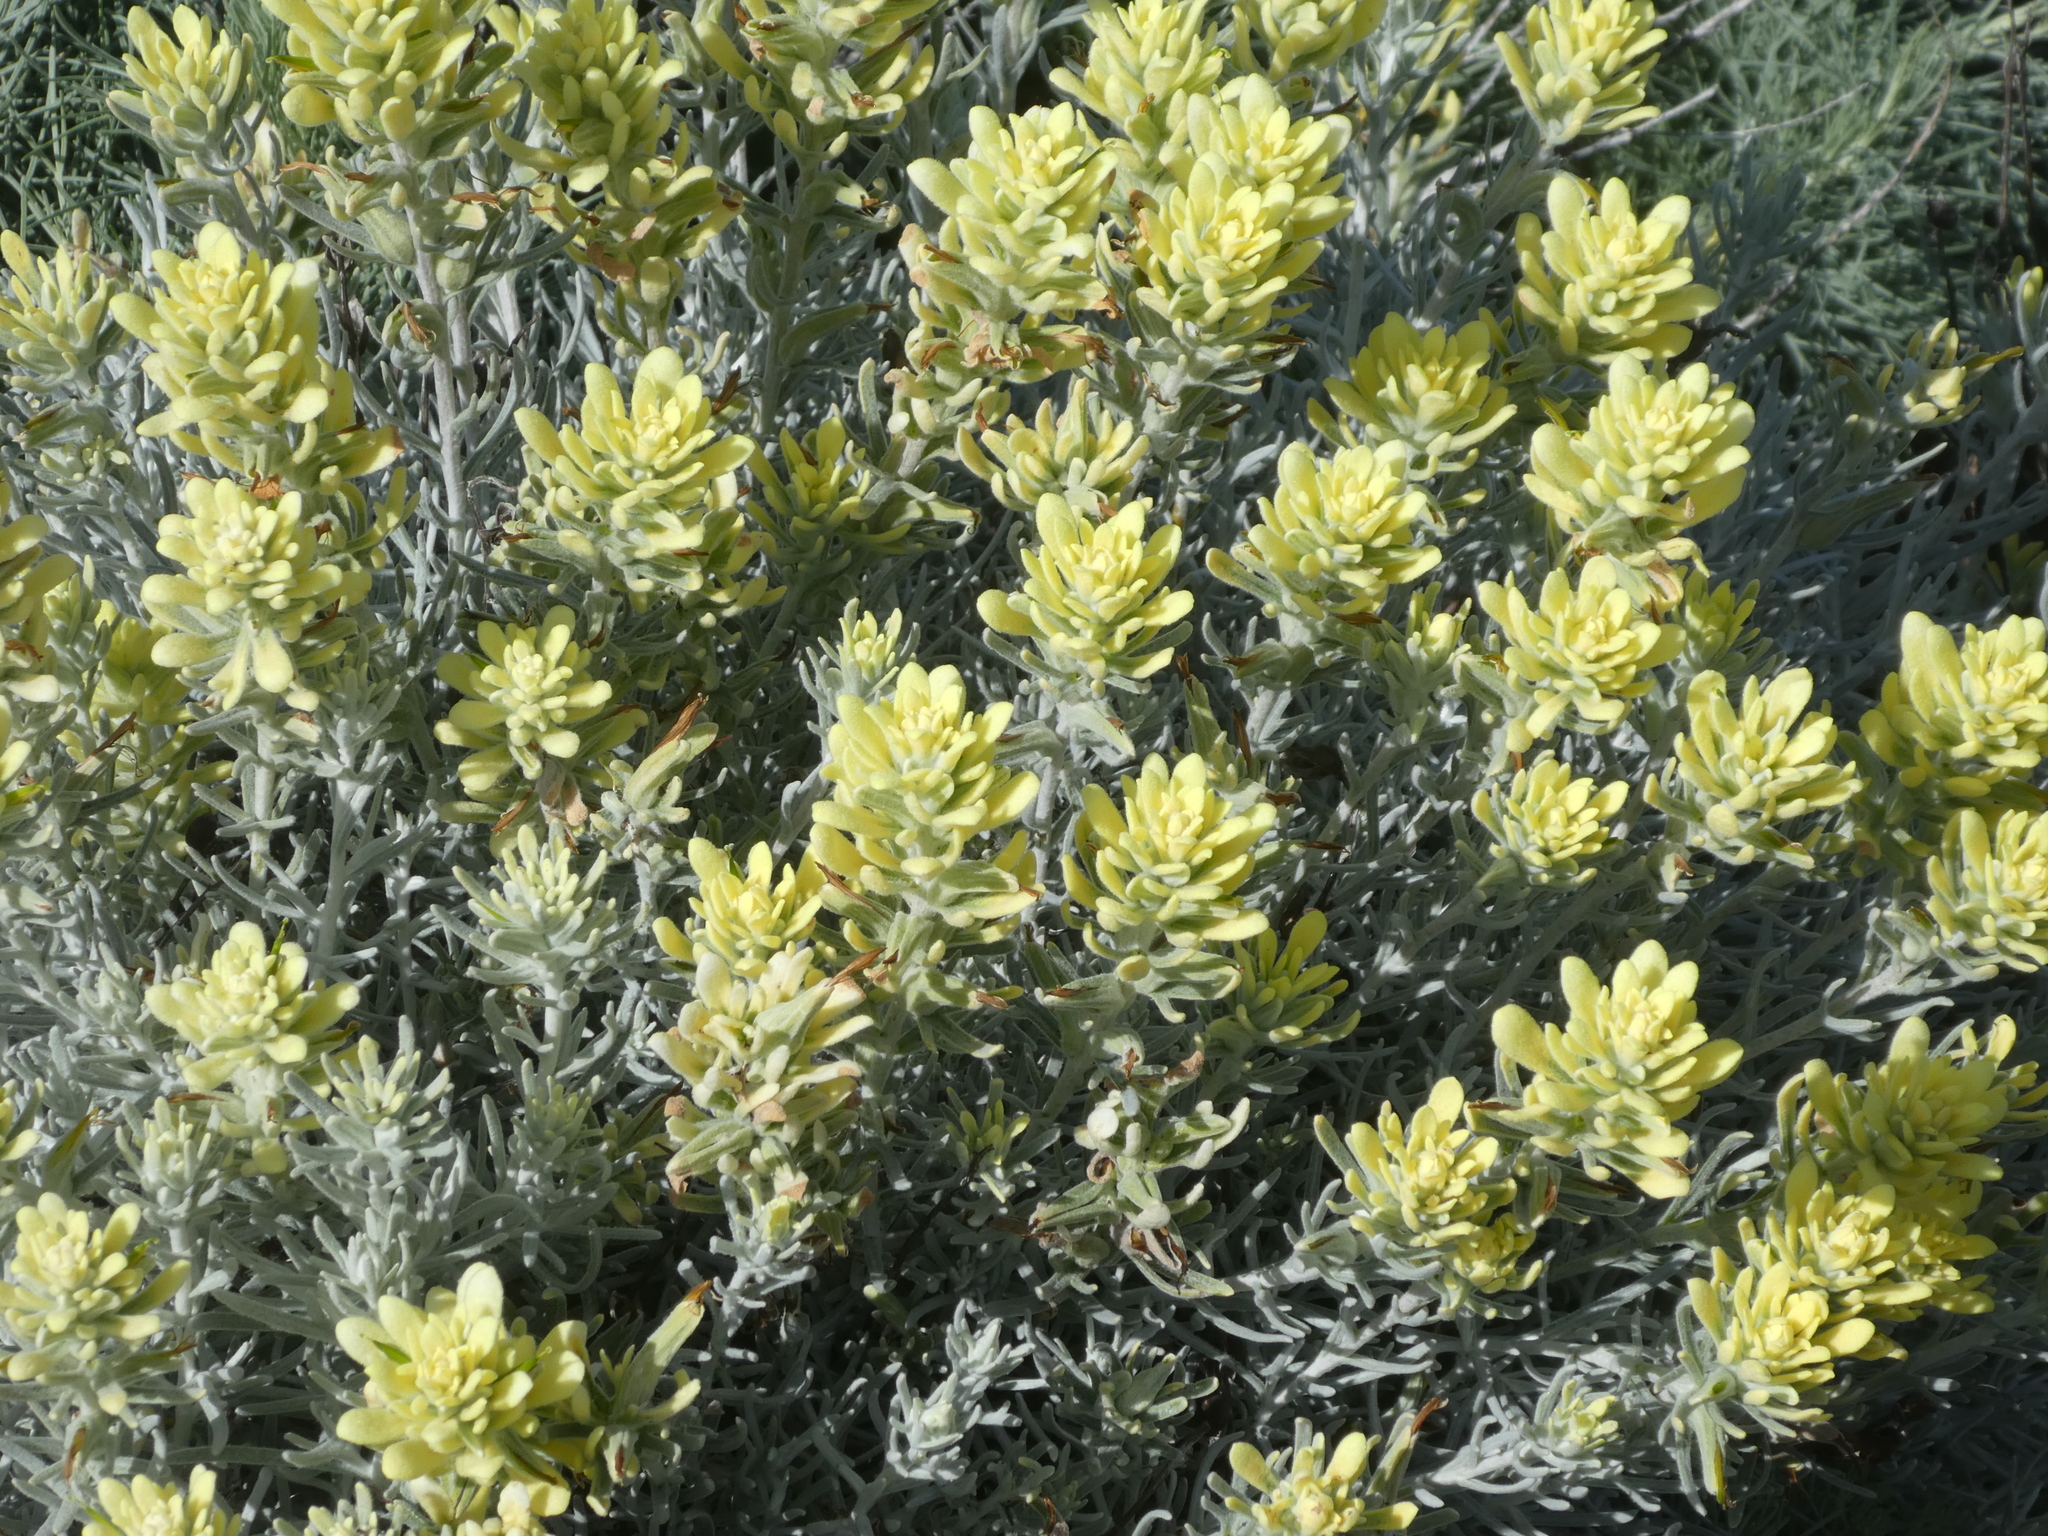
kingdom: Plantae
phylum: Tracheophyta
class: Magnoliopsida
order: Lamiales
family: Orobanchaceae
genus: Castilleja
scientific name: Castilleja hololeuca
